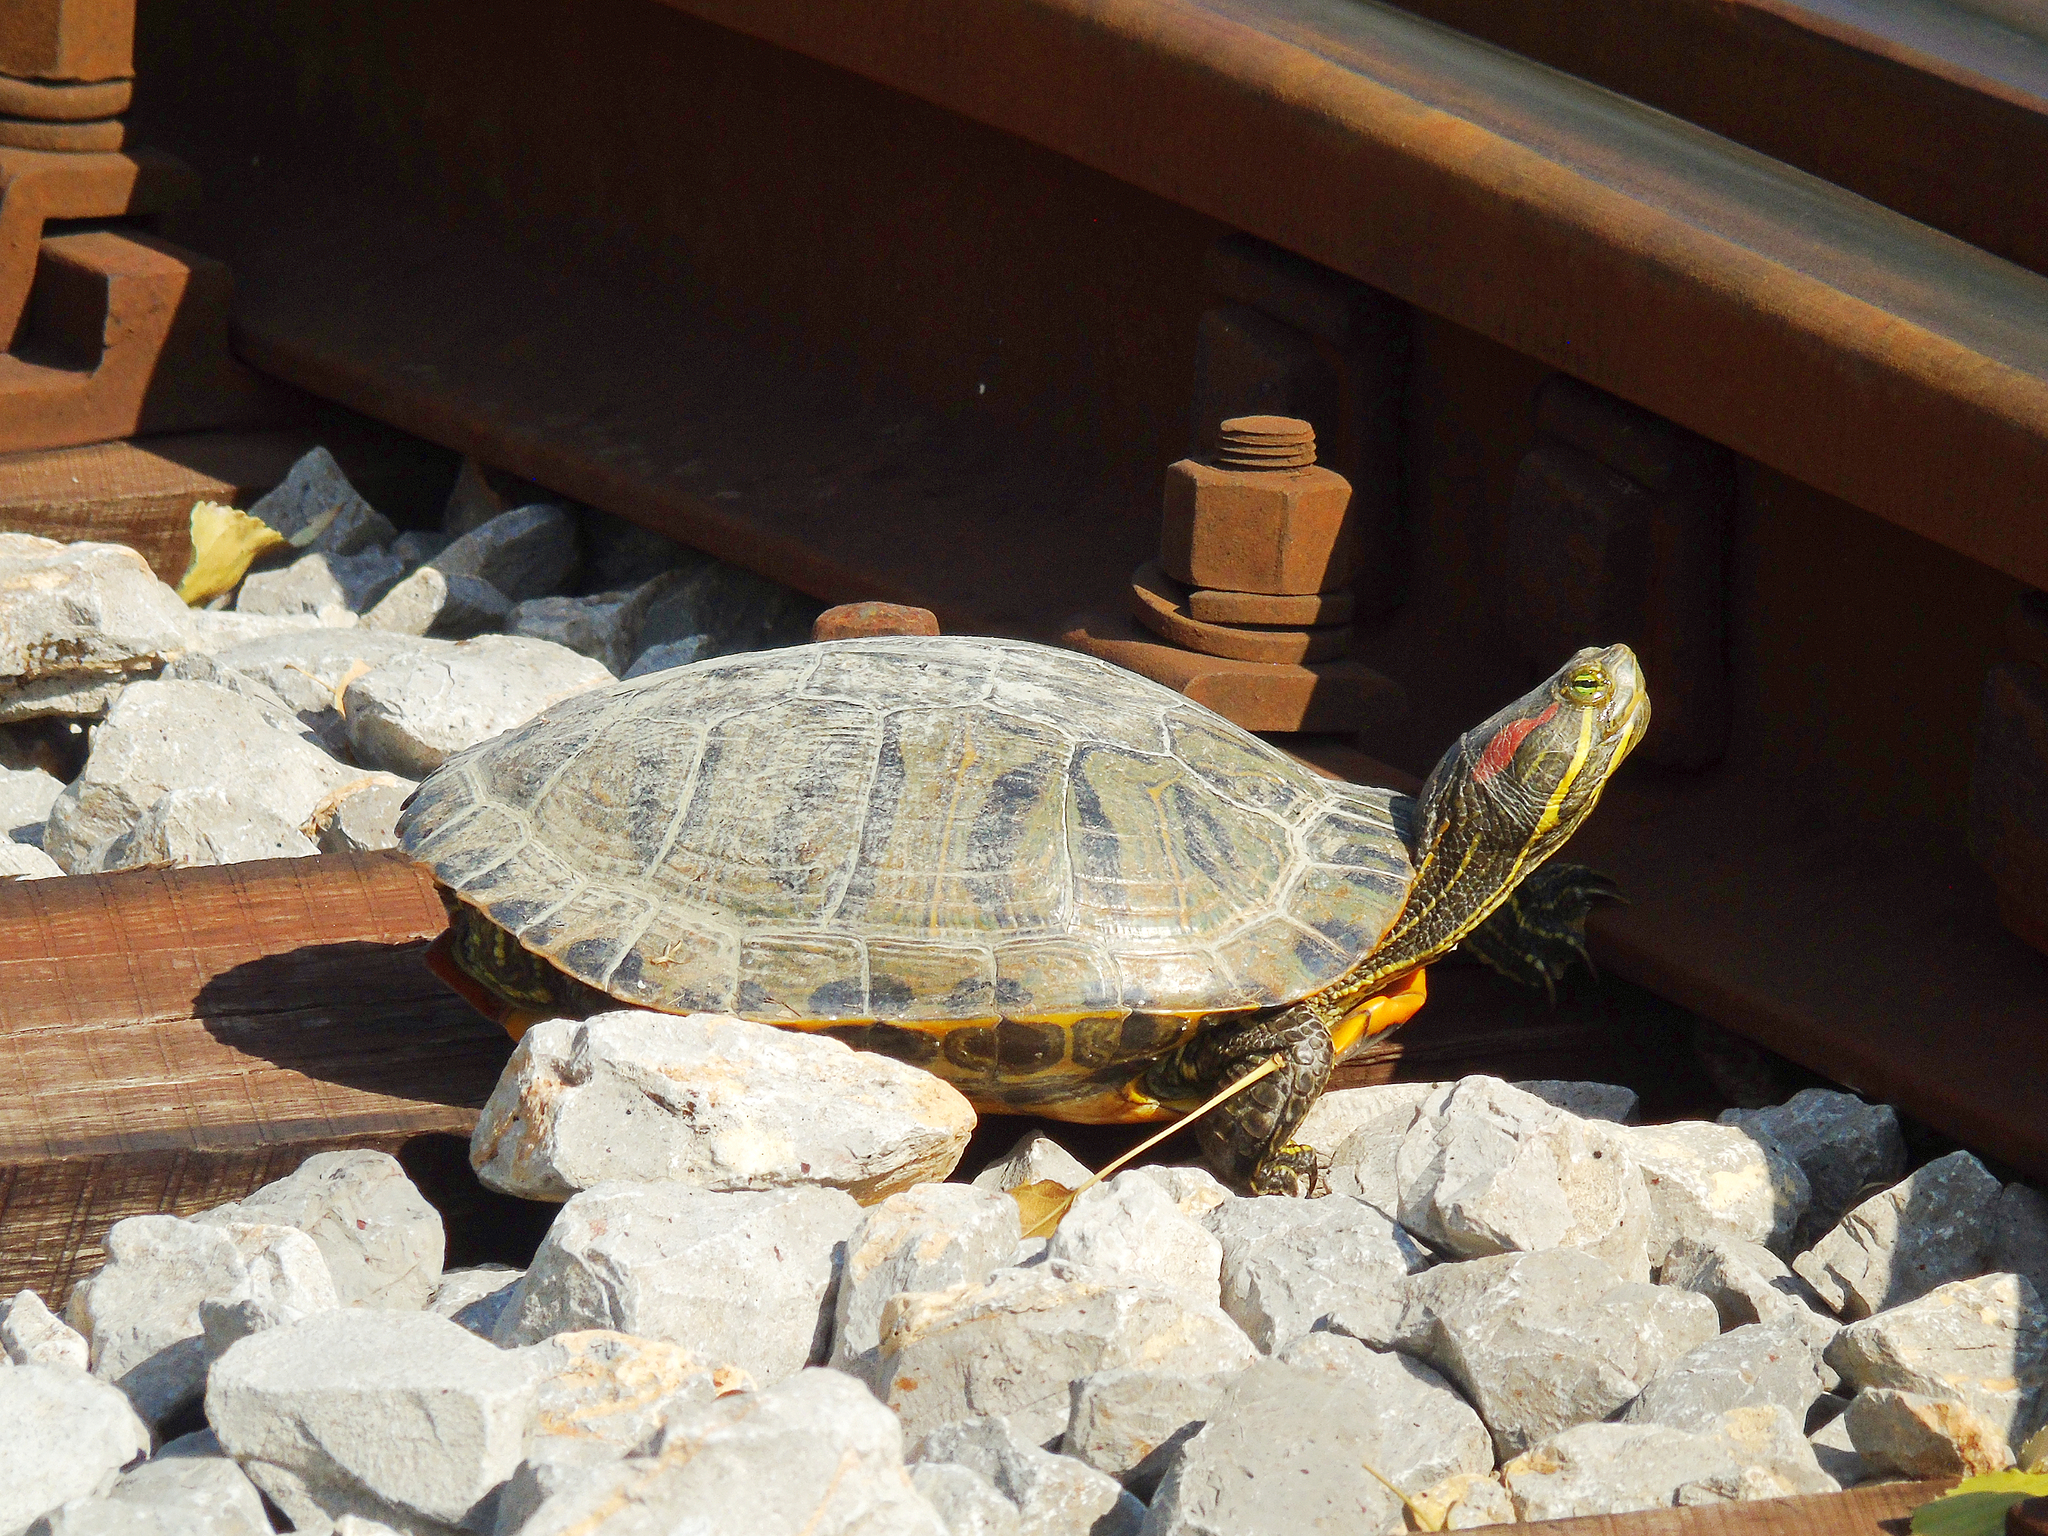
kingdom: Animalia
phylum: Chordata
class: Testudines
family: Emydidae
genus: Trachemys
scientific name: Trachemys scripta
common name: Slider
